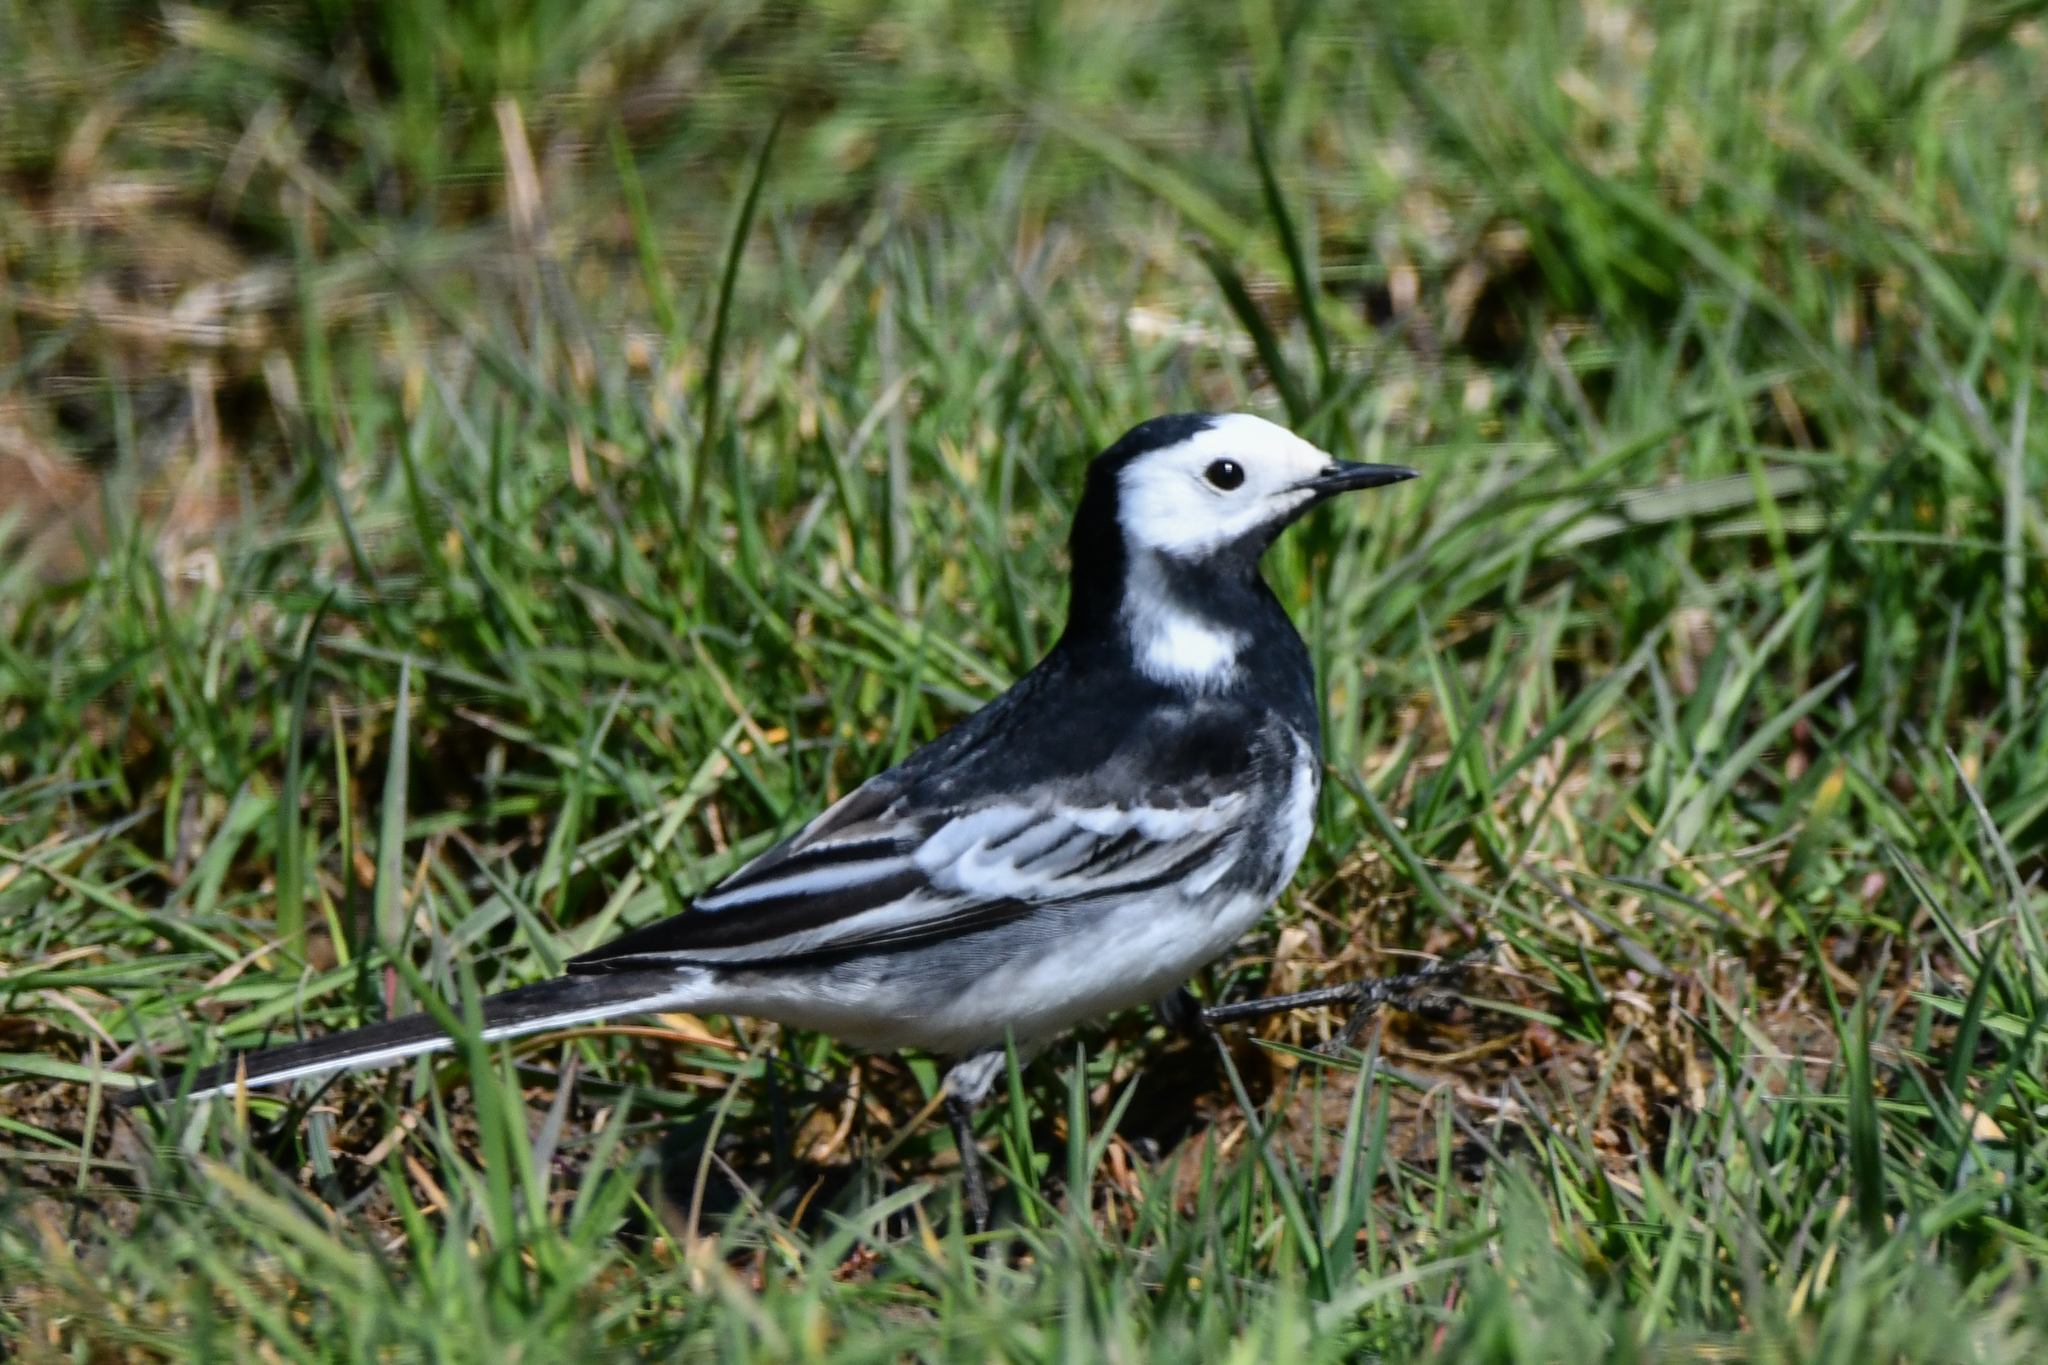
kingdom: Animalia
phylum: Chordata
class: Aves
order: Passeriformes
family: Motacillidae
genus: Motacilla
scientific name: Motacilla alba
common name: White wagtail
